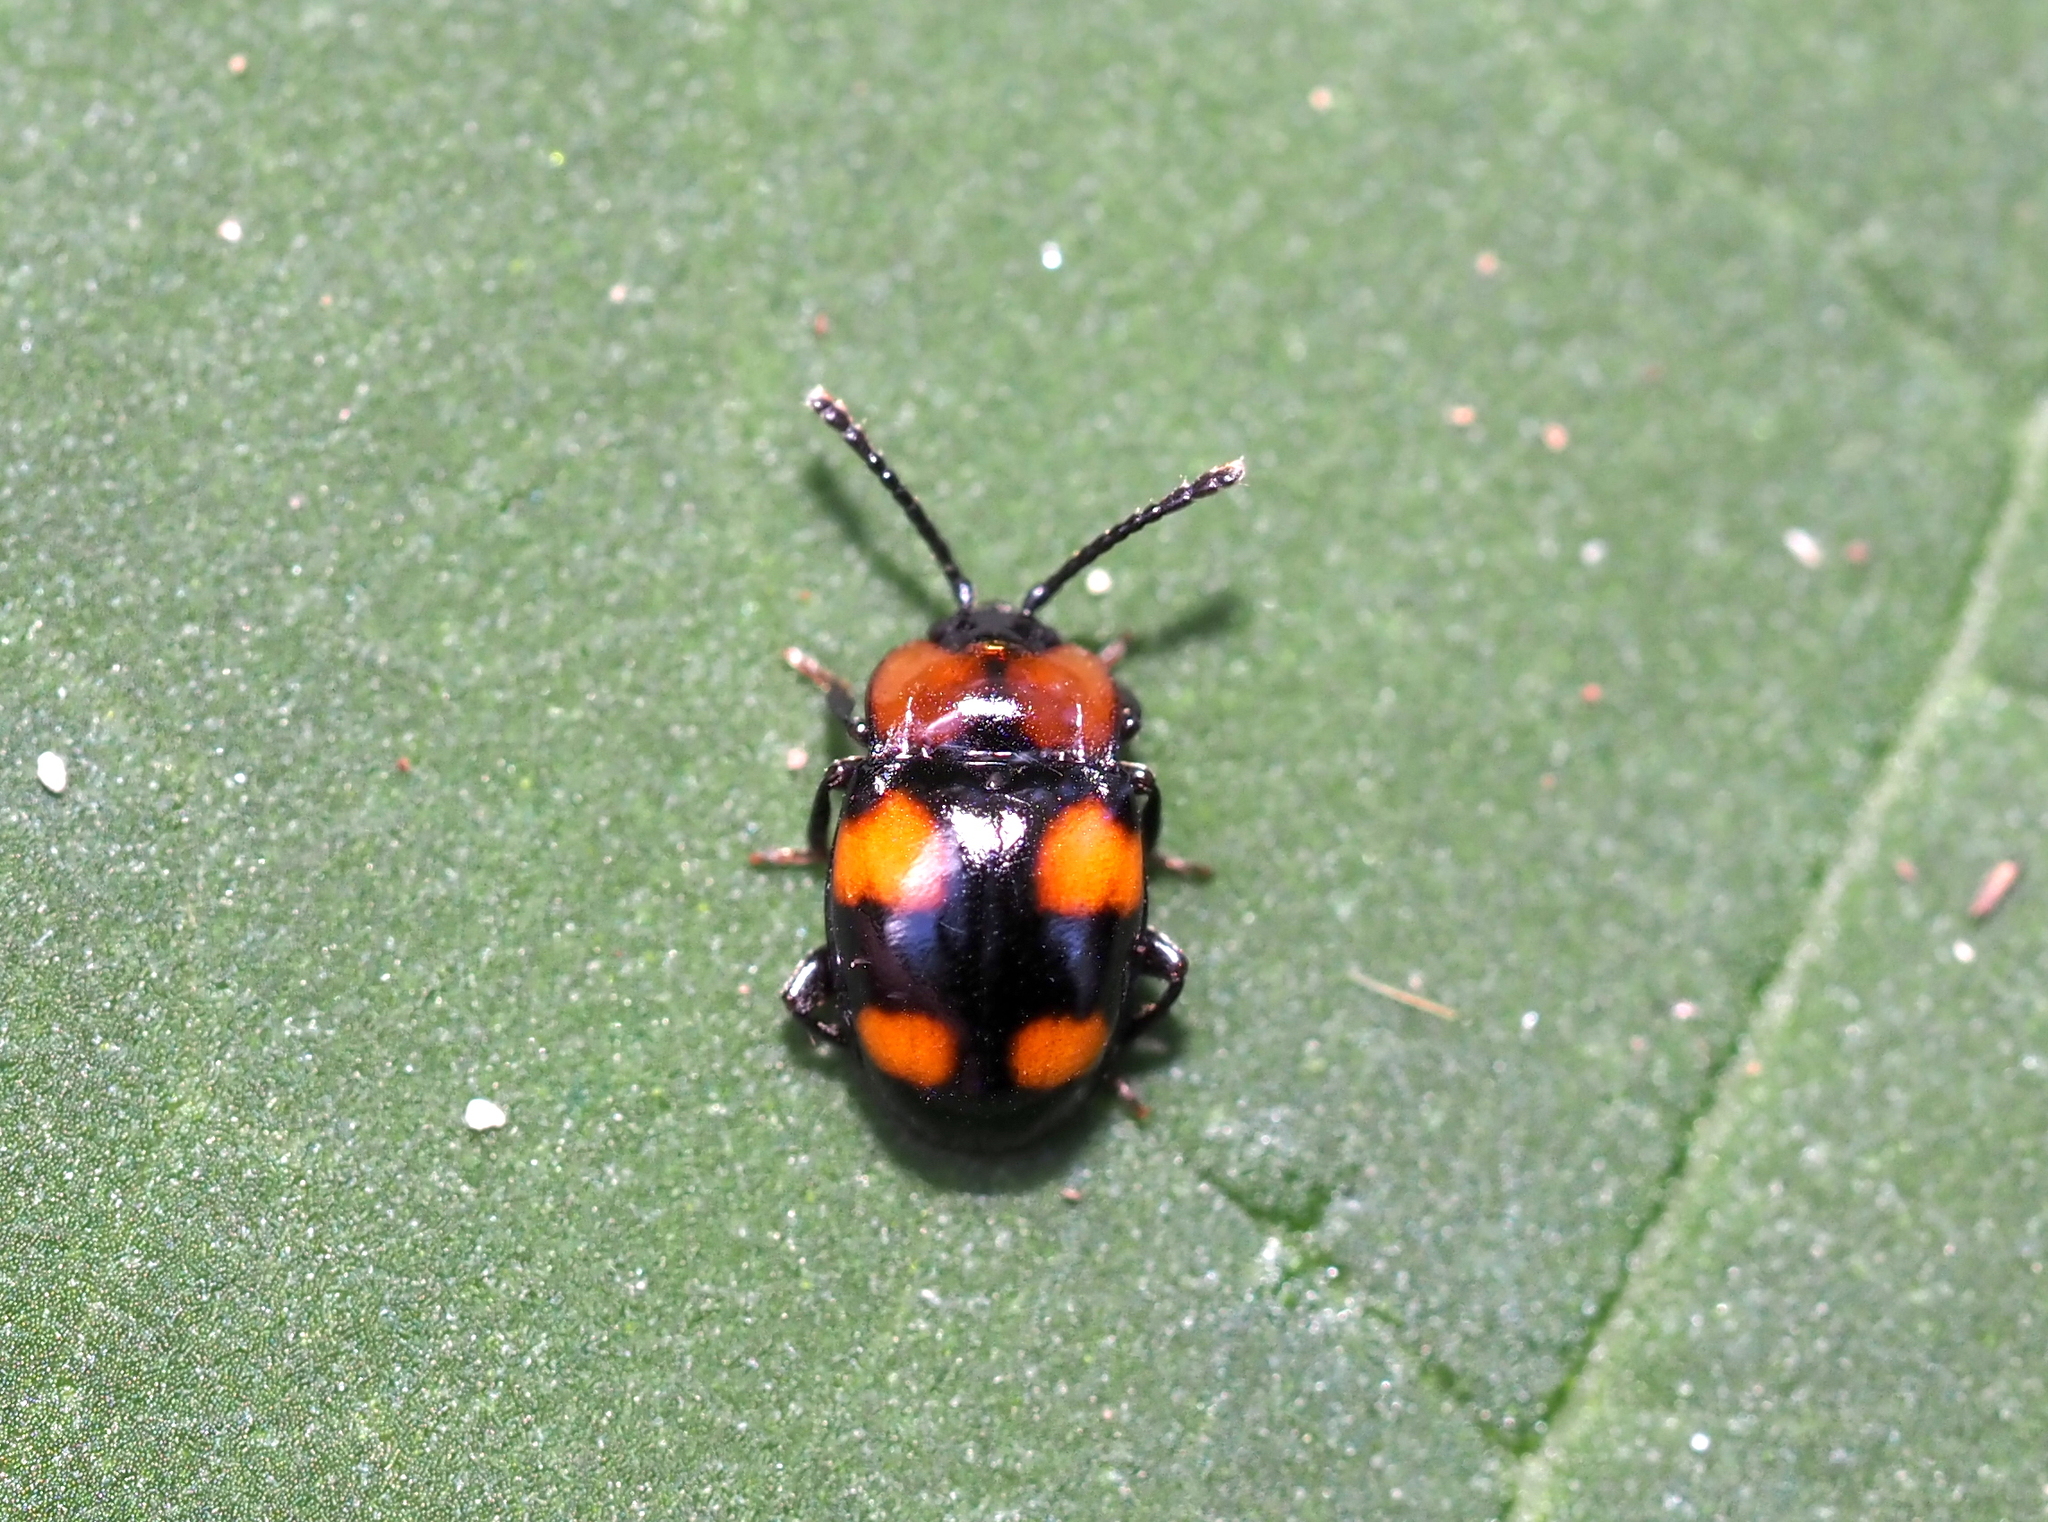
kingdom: Animalia
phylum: Arthropoda
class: Insecta
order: Coleoptera
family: Endomychidae
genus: Mycetina
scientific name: Mycetina perpulchra
